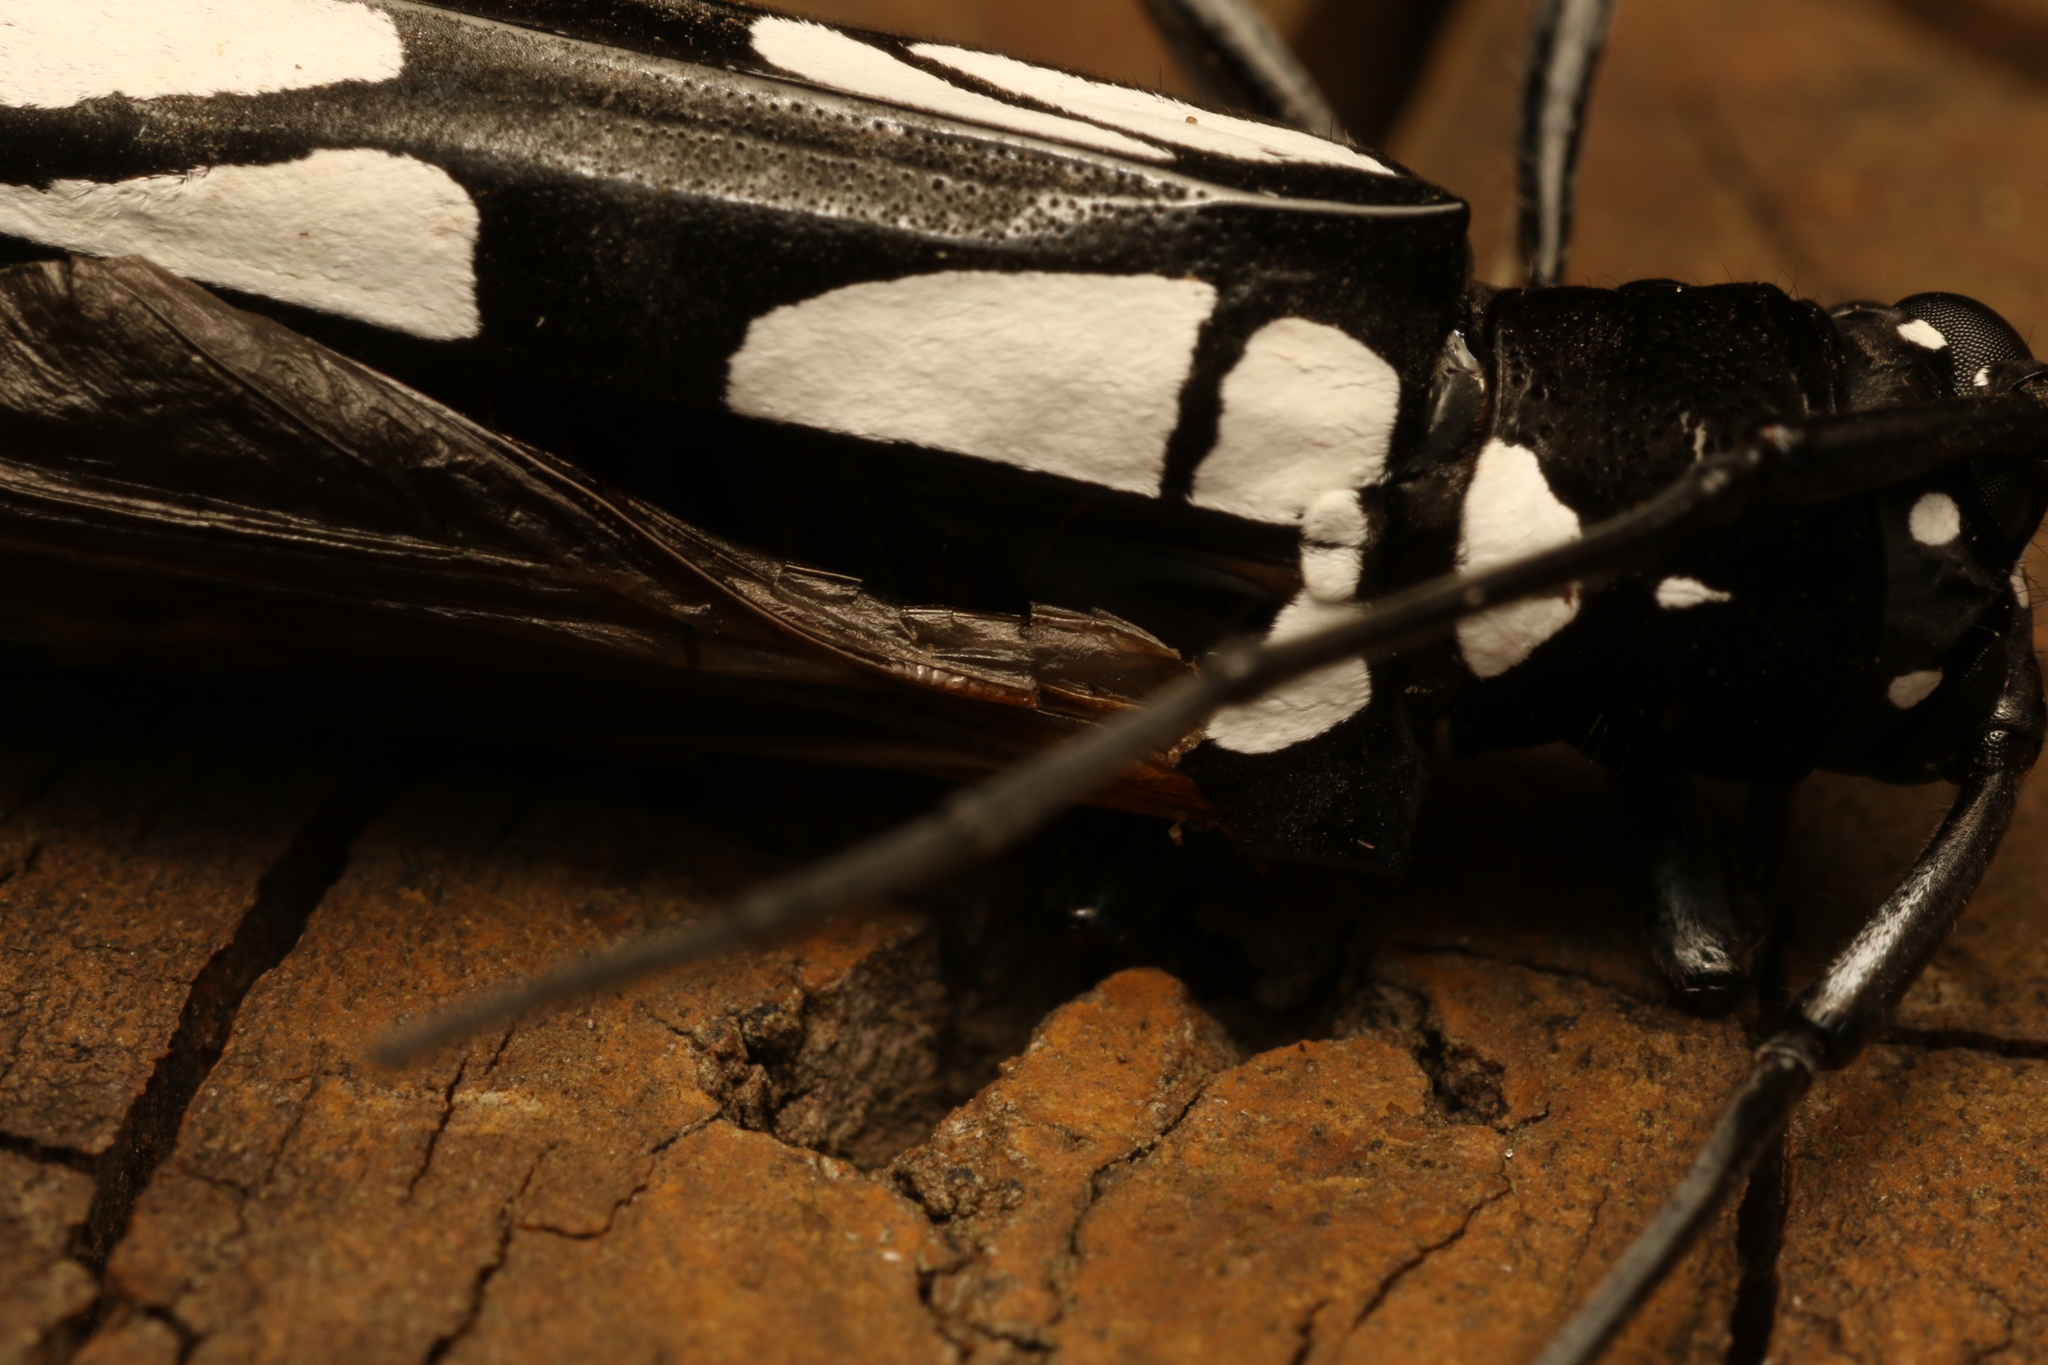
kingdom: Animalia
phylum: Arthropoda
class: Insecta
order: Coleoptera
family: Cerambycidae
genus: Quatiara
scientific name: Quatiara luctuosa
